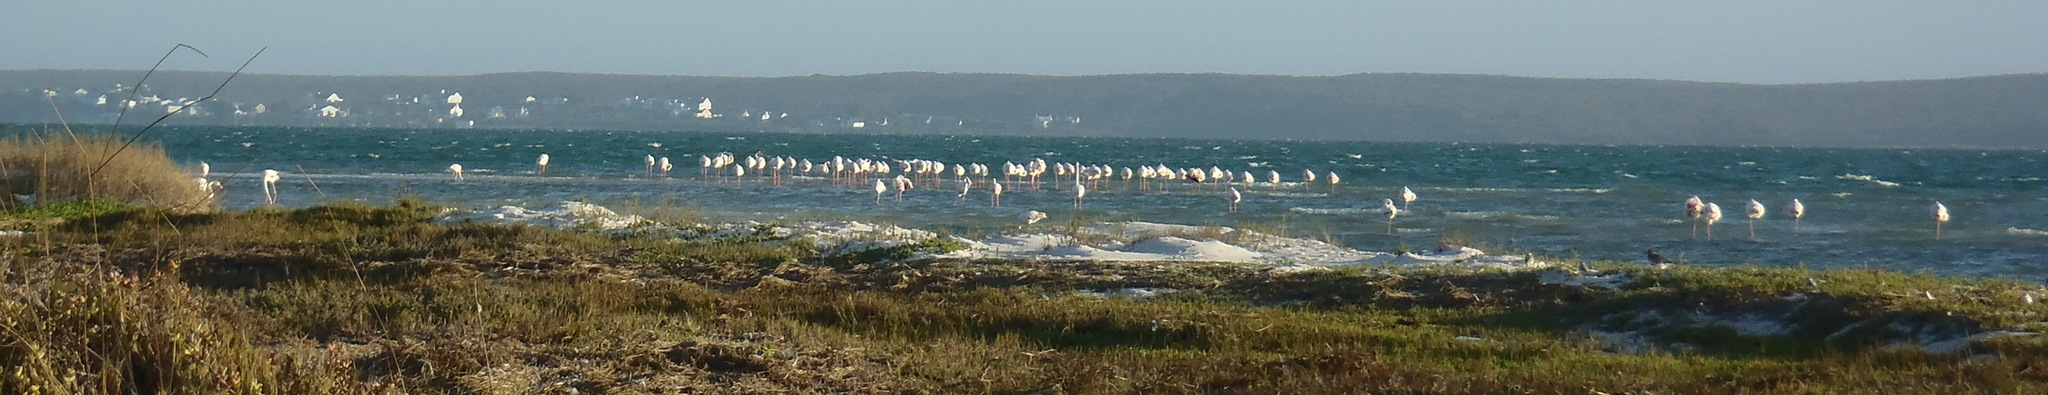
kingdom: Animalia
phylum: Chordata
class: Aves
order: Phoenicopteriformes
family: Phoenicopteridae
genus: Phoenicopterus
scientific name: Phoenicopterus roseus
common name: Greater flamingo
